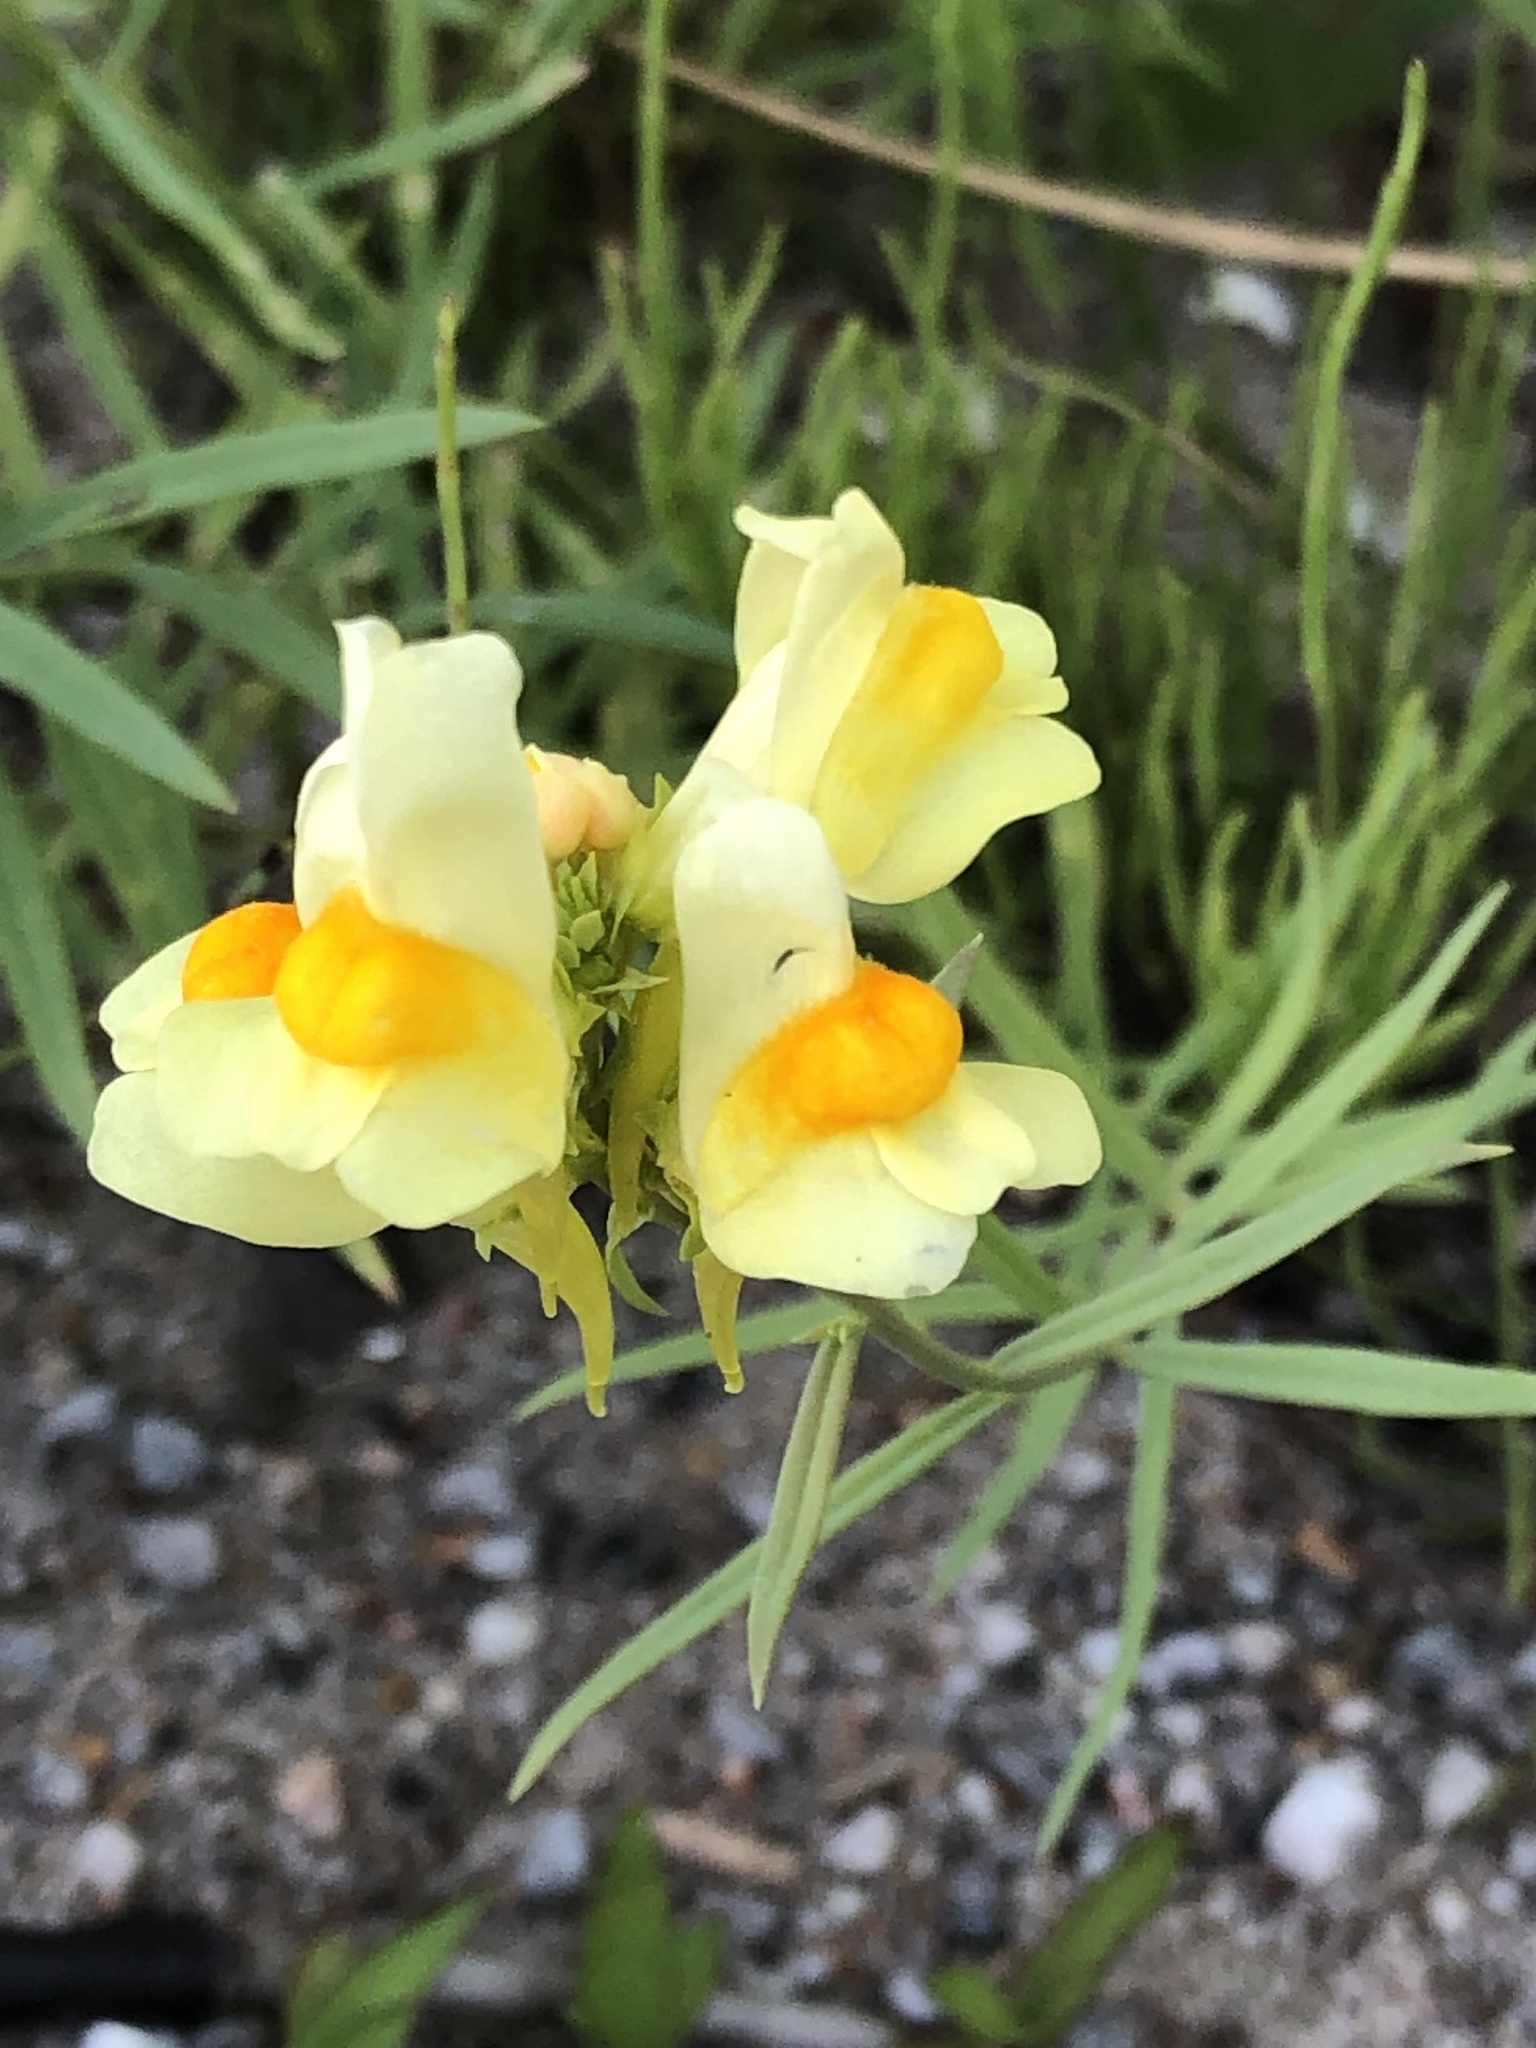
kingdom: Plantae
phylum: Tracheophyta
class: Magnoliopsida
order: Lamiales
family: Plantaginaceae
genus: Linaria
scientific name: Linaria vulgaris
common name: Butter and eggs
